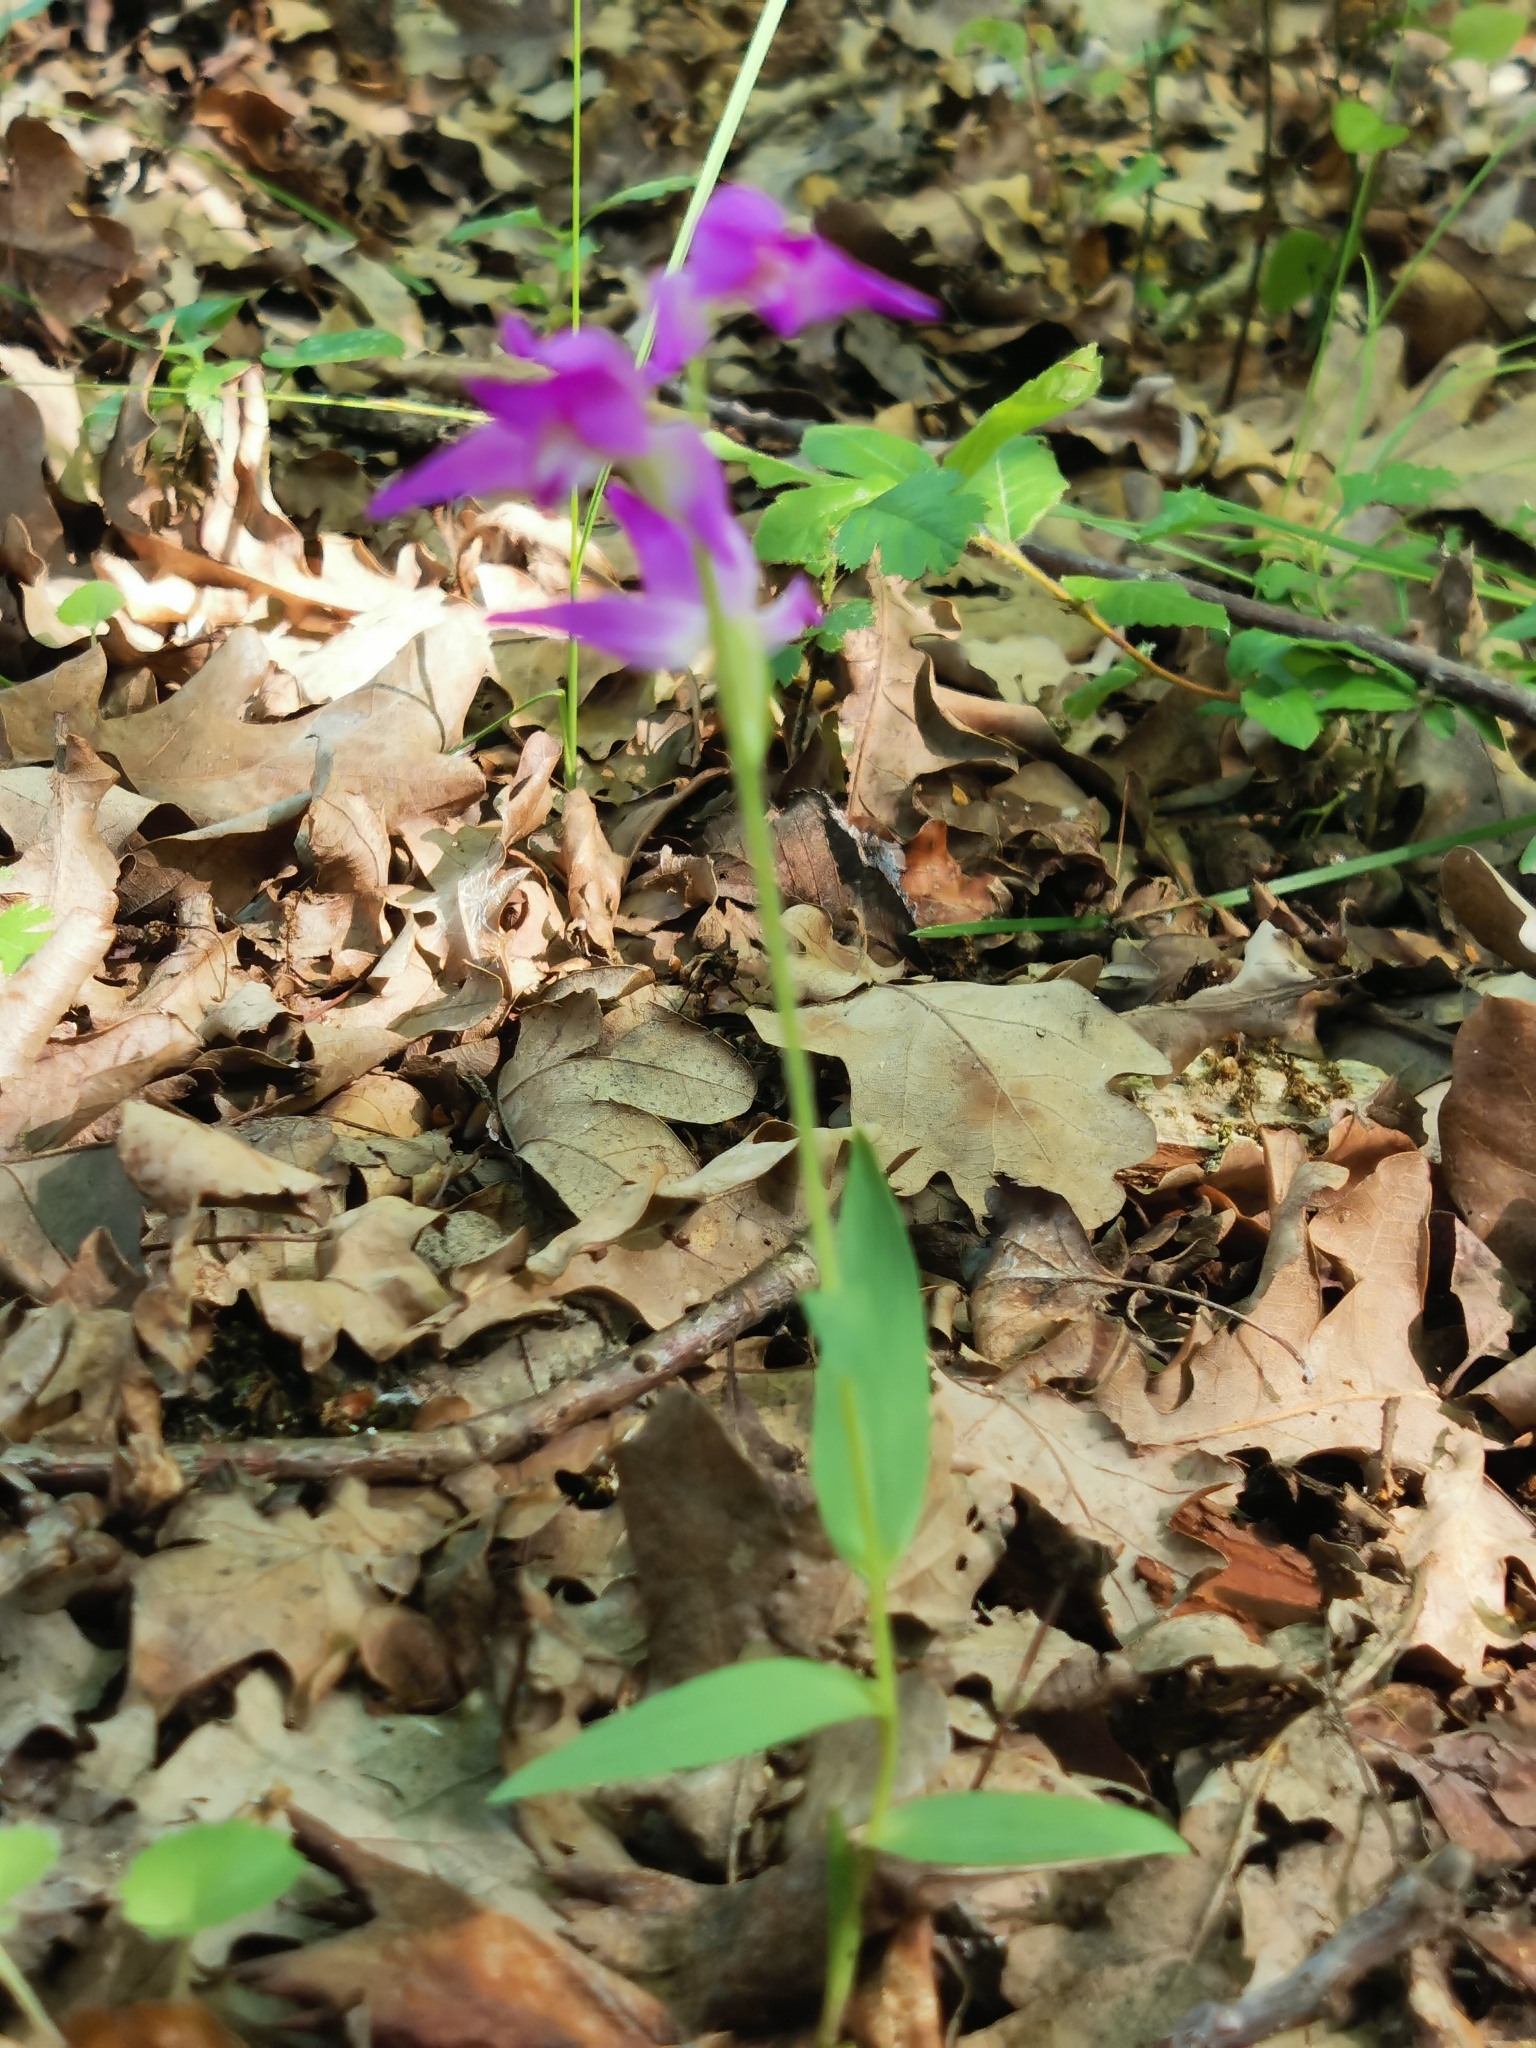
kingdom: Plantae
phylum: Tracheophyta
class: Liliopsida
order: Asparagales
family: Orchidaceae
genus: Cephalanthera
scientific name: Cephalanthera rubra
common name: Red helleborine
